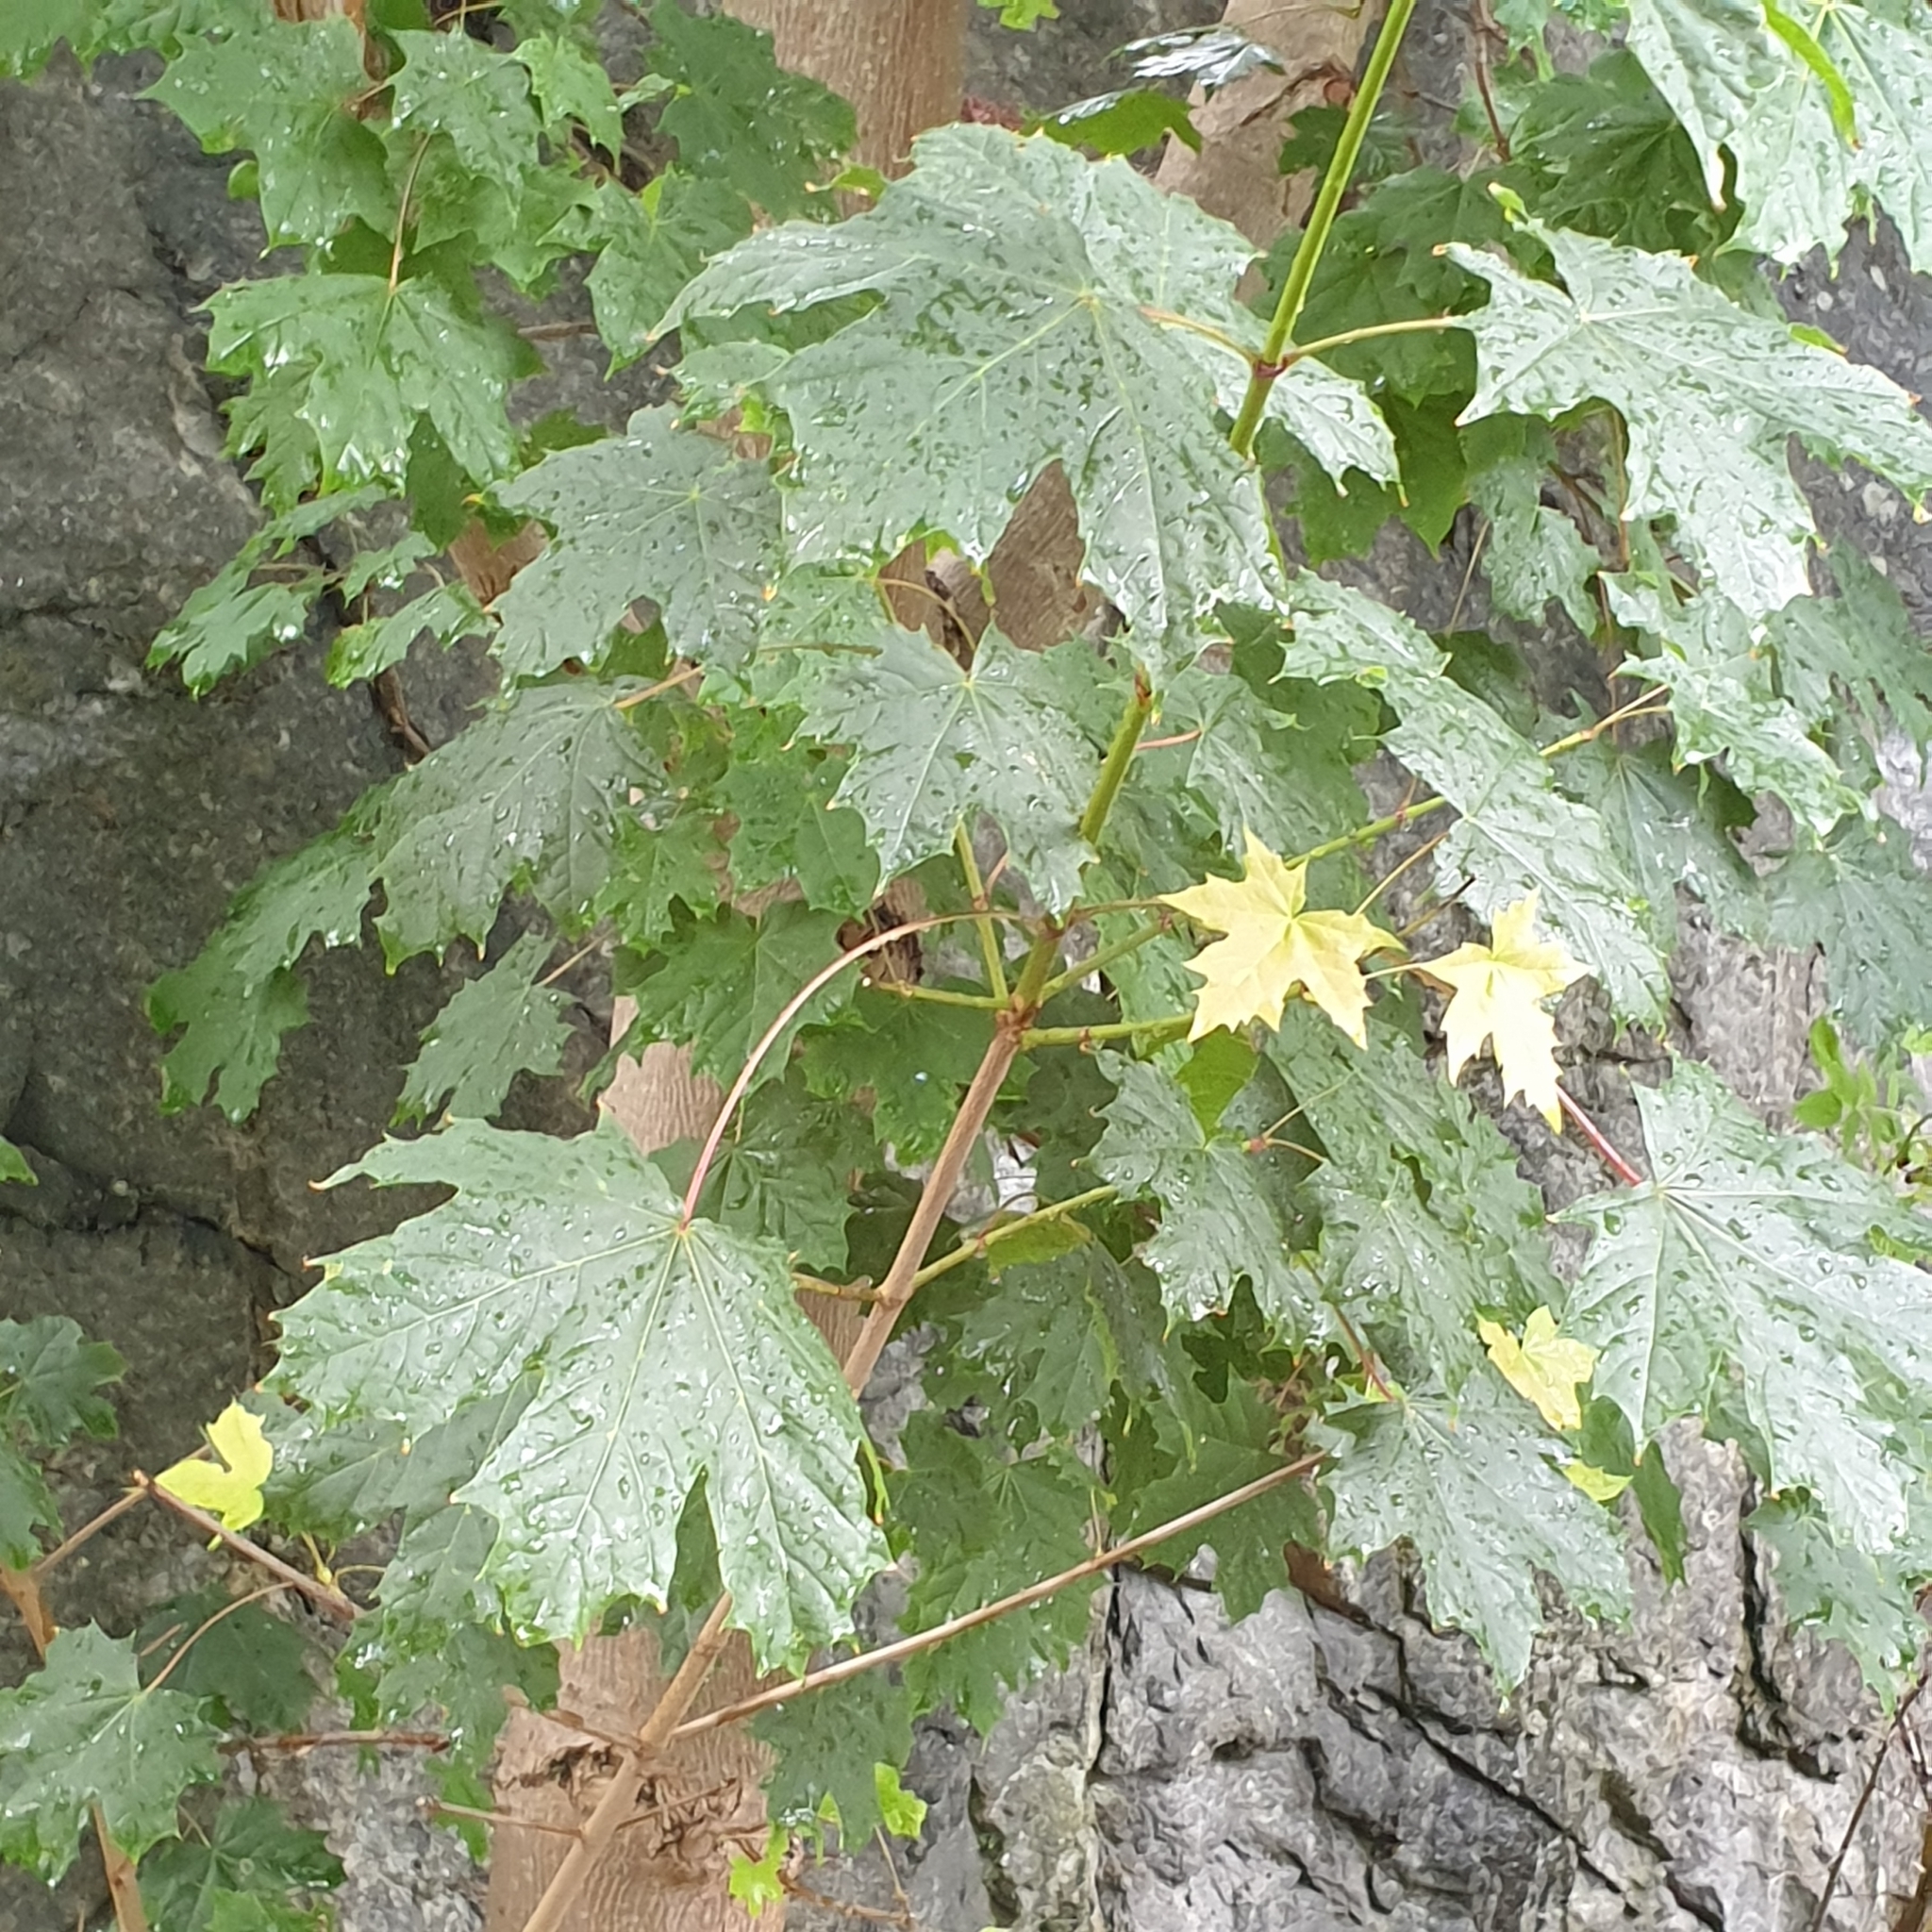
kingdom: Plantae
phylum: Tracheophyta
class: Magnoliopsida
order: Sapindales
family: Sapindaceae
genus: Acer
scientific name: Acer platanoides
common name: Norway maple
